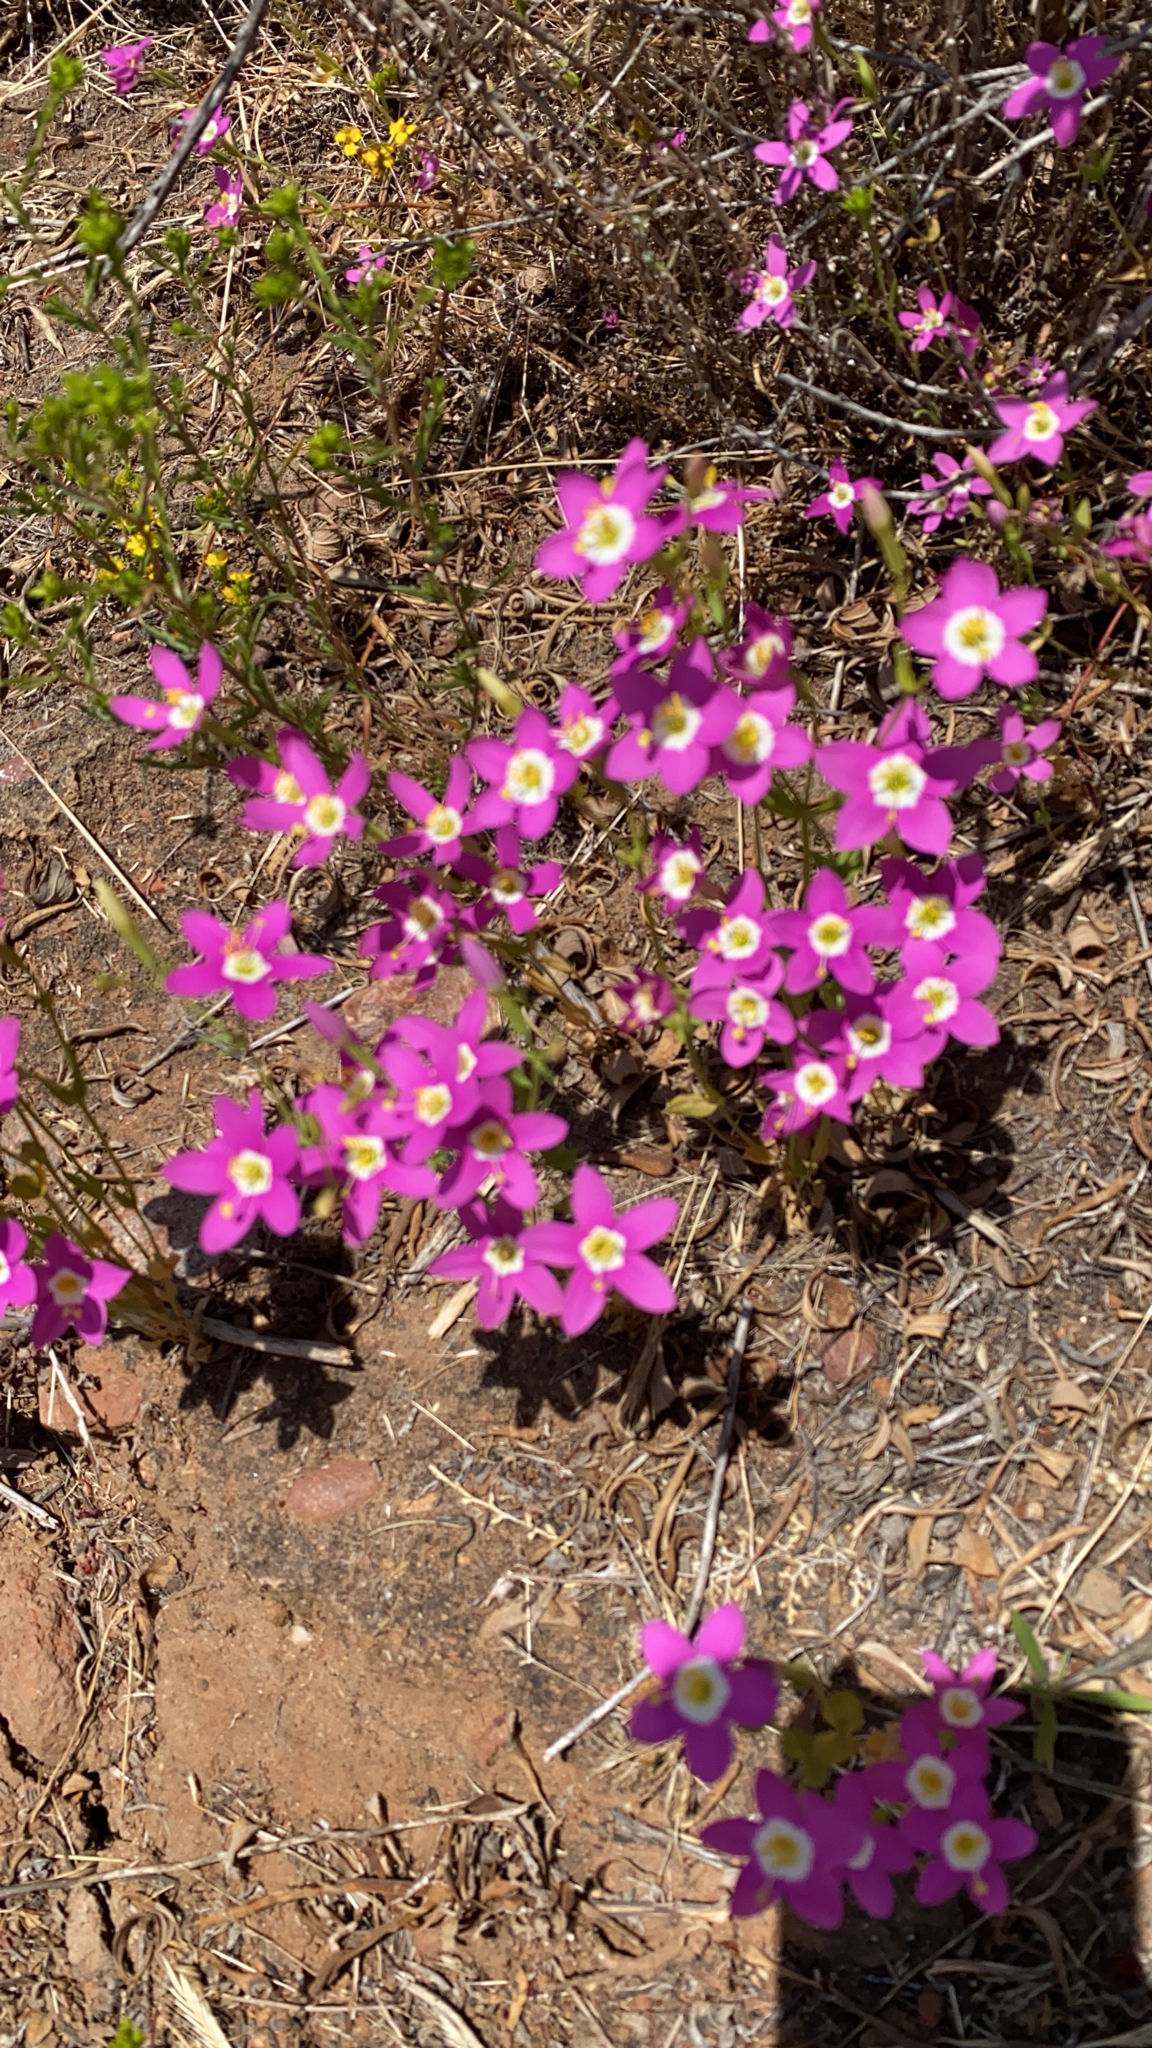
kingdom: Plantae
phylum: Tracheophyta
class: Magnoliopsida
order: Gentianales
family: Gentianaceae
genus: Zeltnera
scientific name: Zeltnera venusta
